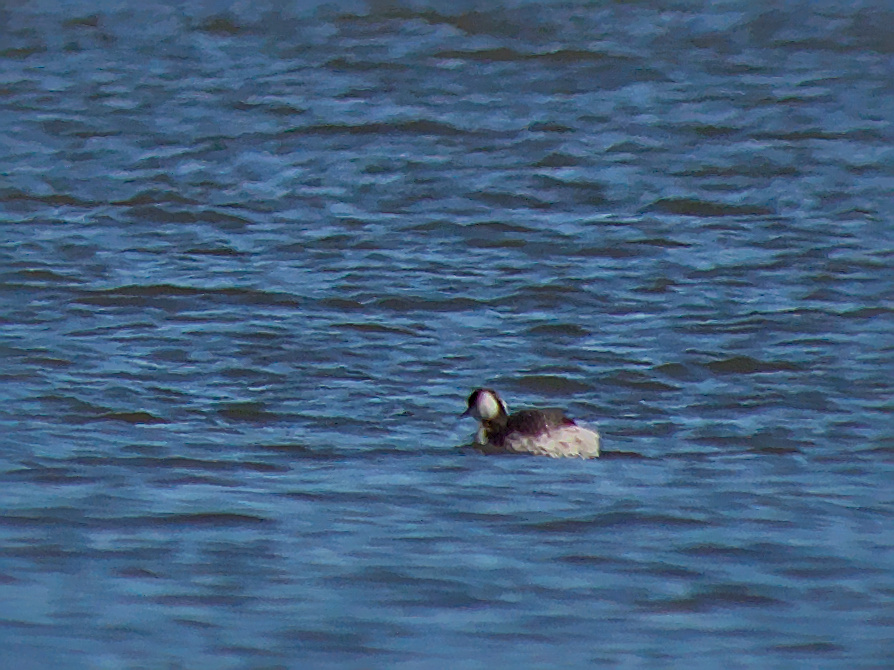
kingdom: Animalia
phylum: Chordata
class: Aves
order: Podicipediformes
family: Podicipedidae
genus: Podiceps
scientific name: Podiceps auritus
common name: Horned grebe
